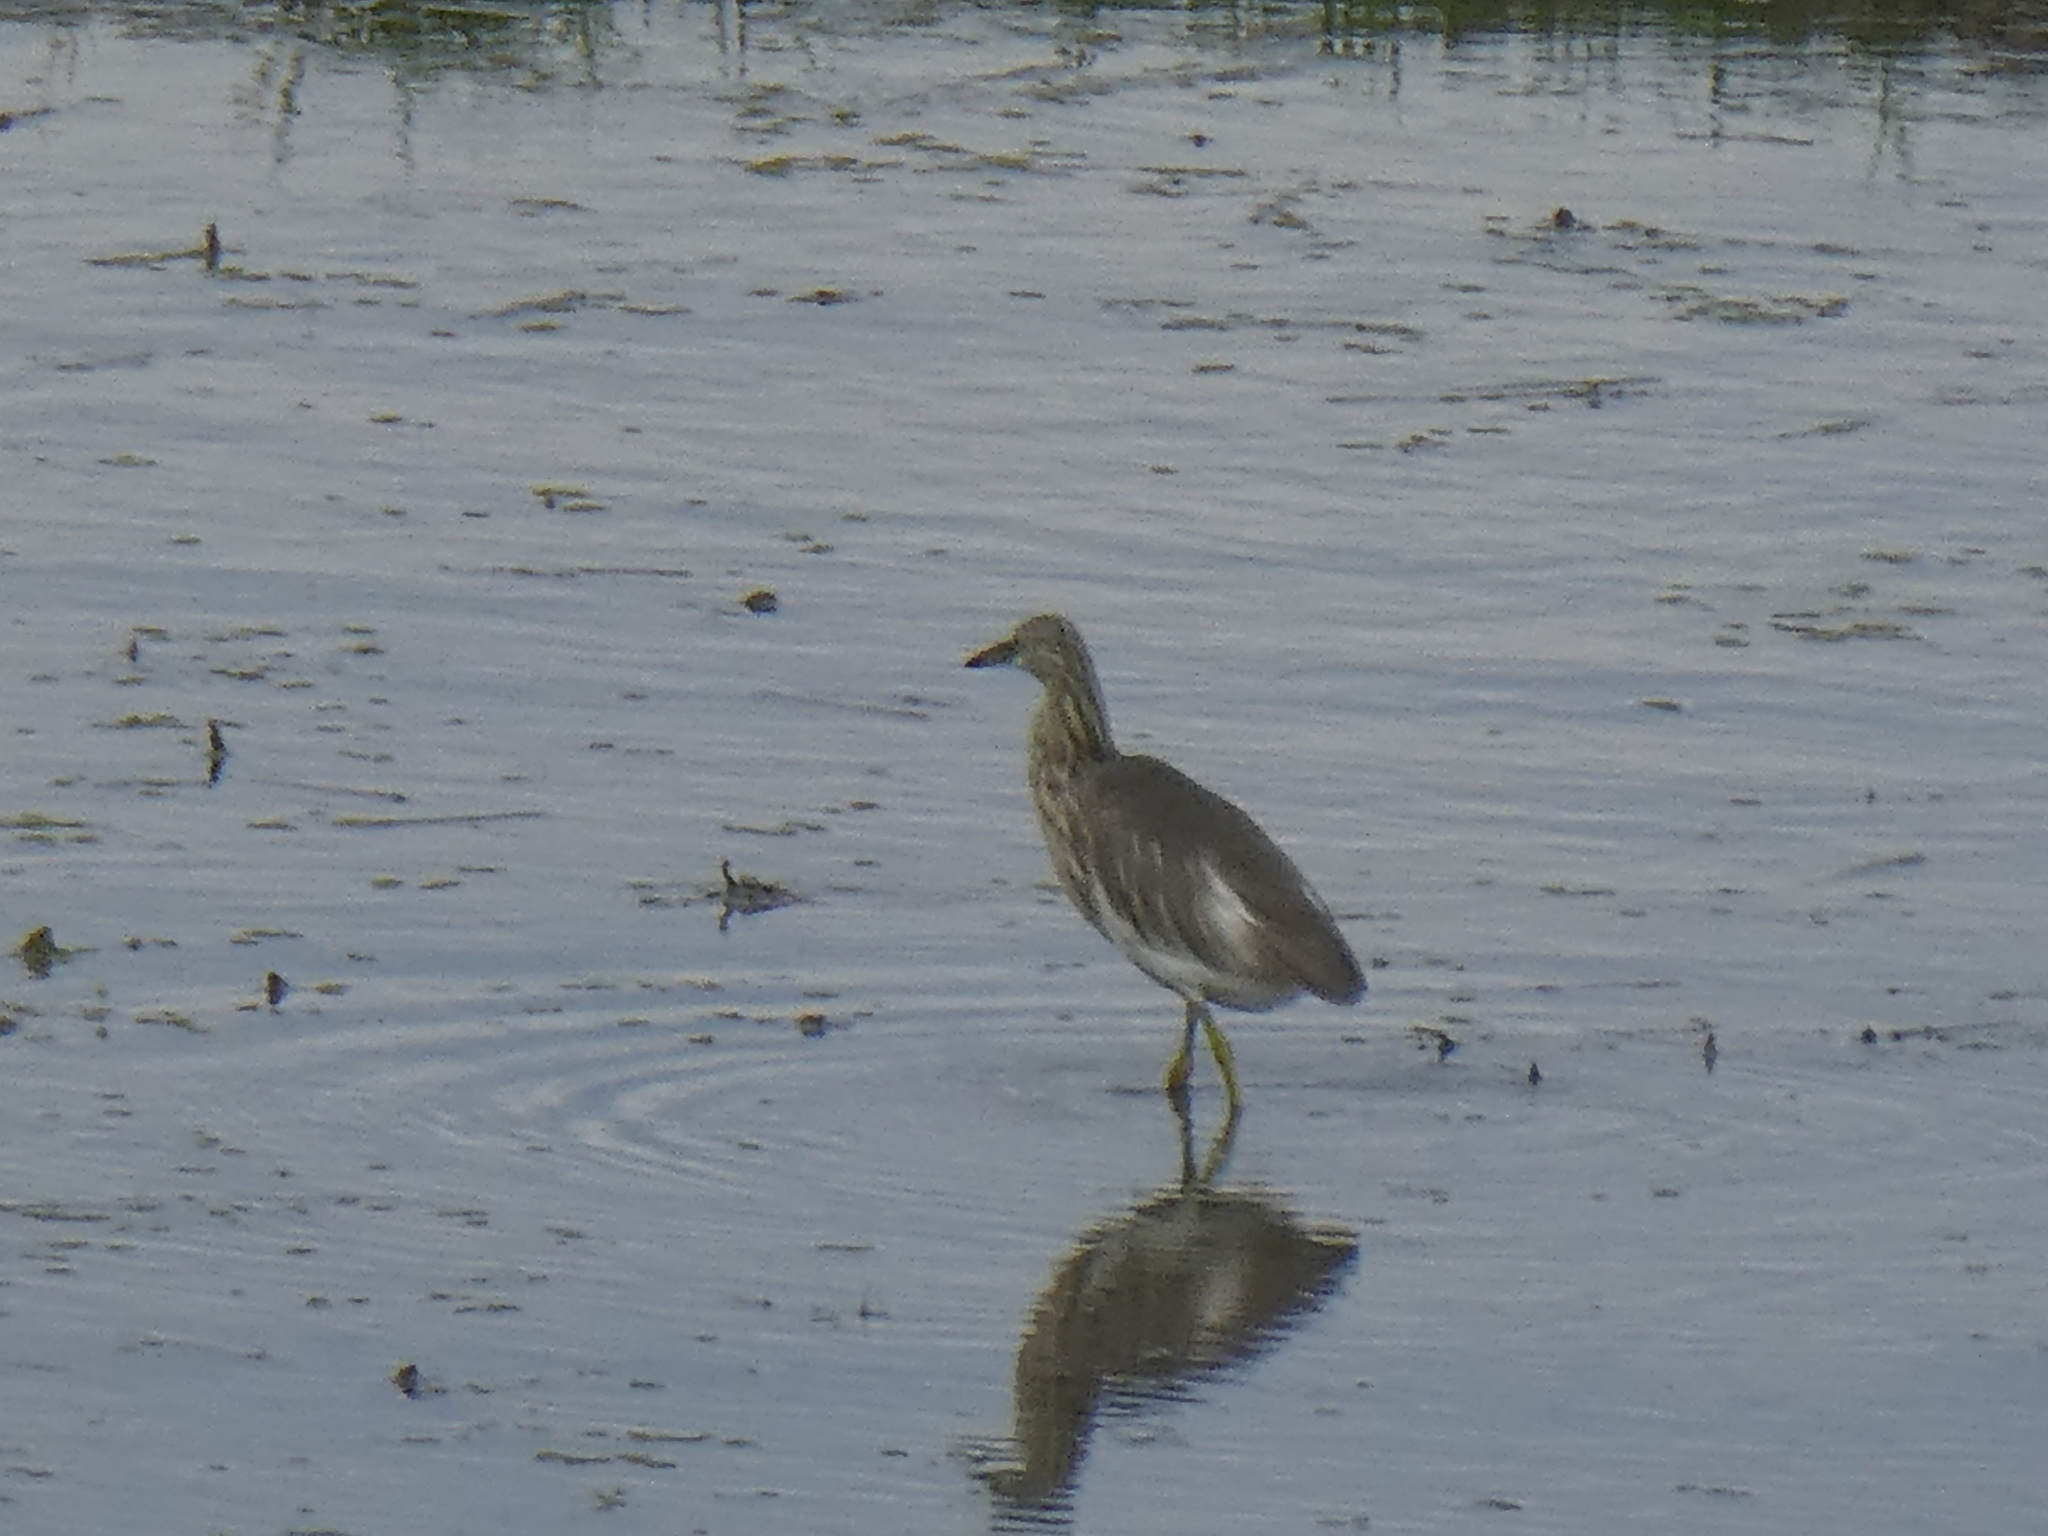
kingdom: Animalia
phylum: Chordata
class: Aves
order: Pelecaniformes
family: Ardeidae
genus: Ardeola
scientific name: Ardeola speciosa
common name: Javan pond heron
